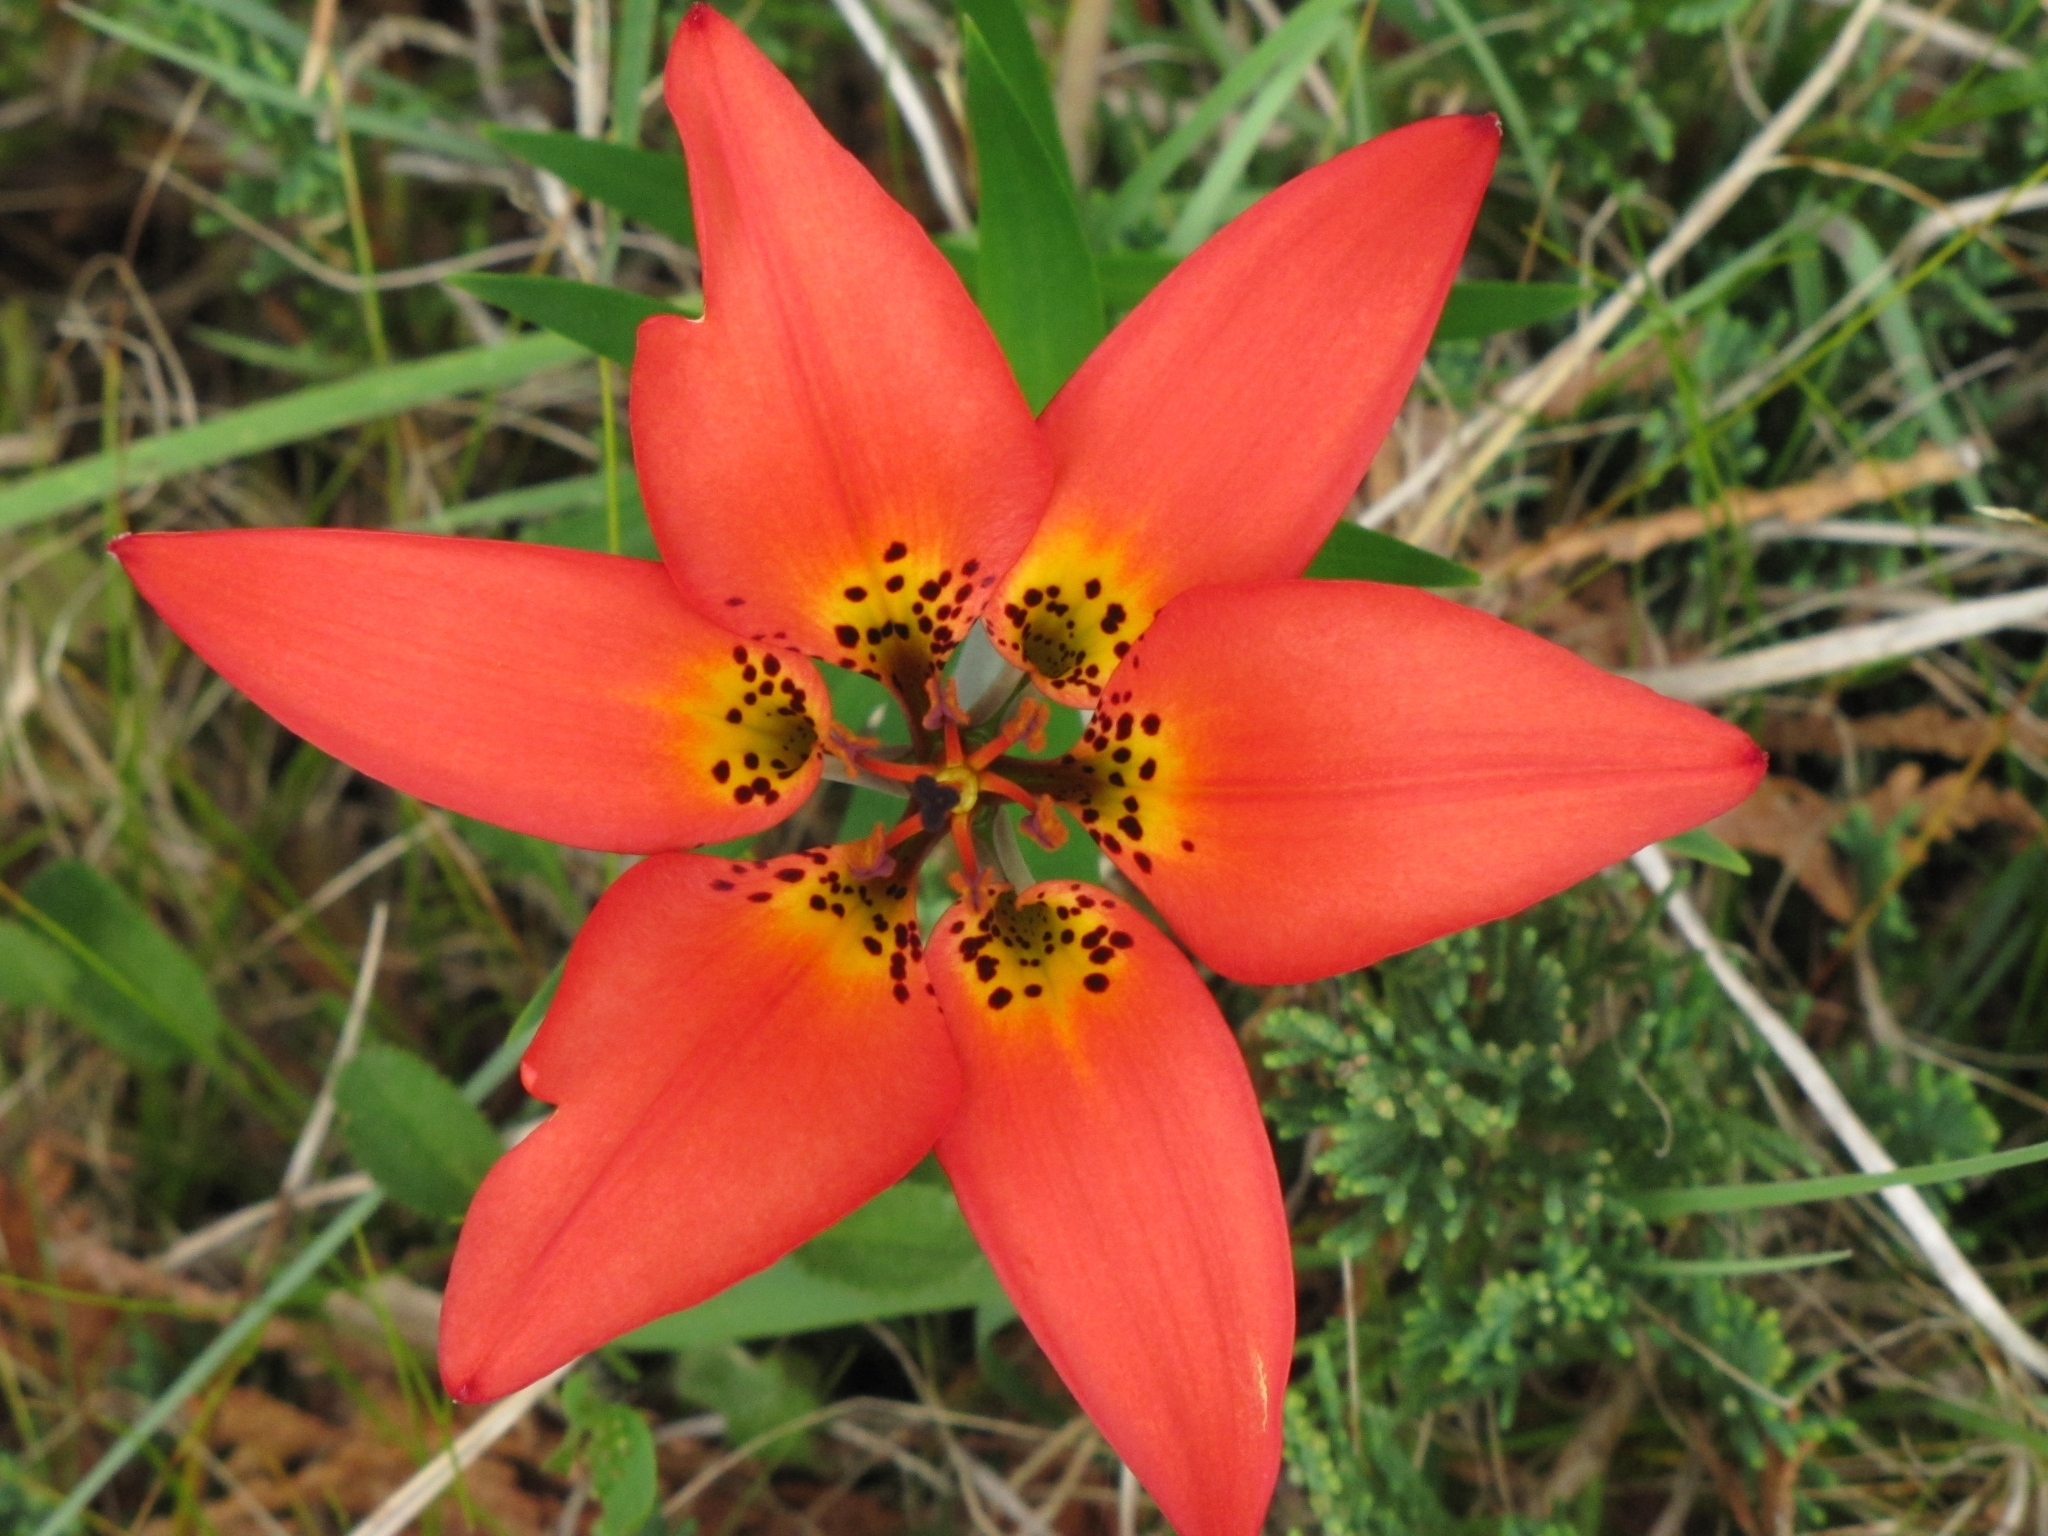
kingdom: Plantae
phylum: Tracheophyta
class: Liliopsida
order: Liliales
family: Liliaceae
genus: Lilium
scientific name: Lilium philadelphicum
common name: Red lily
